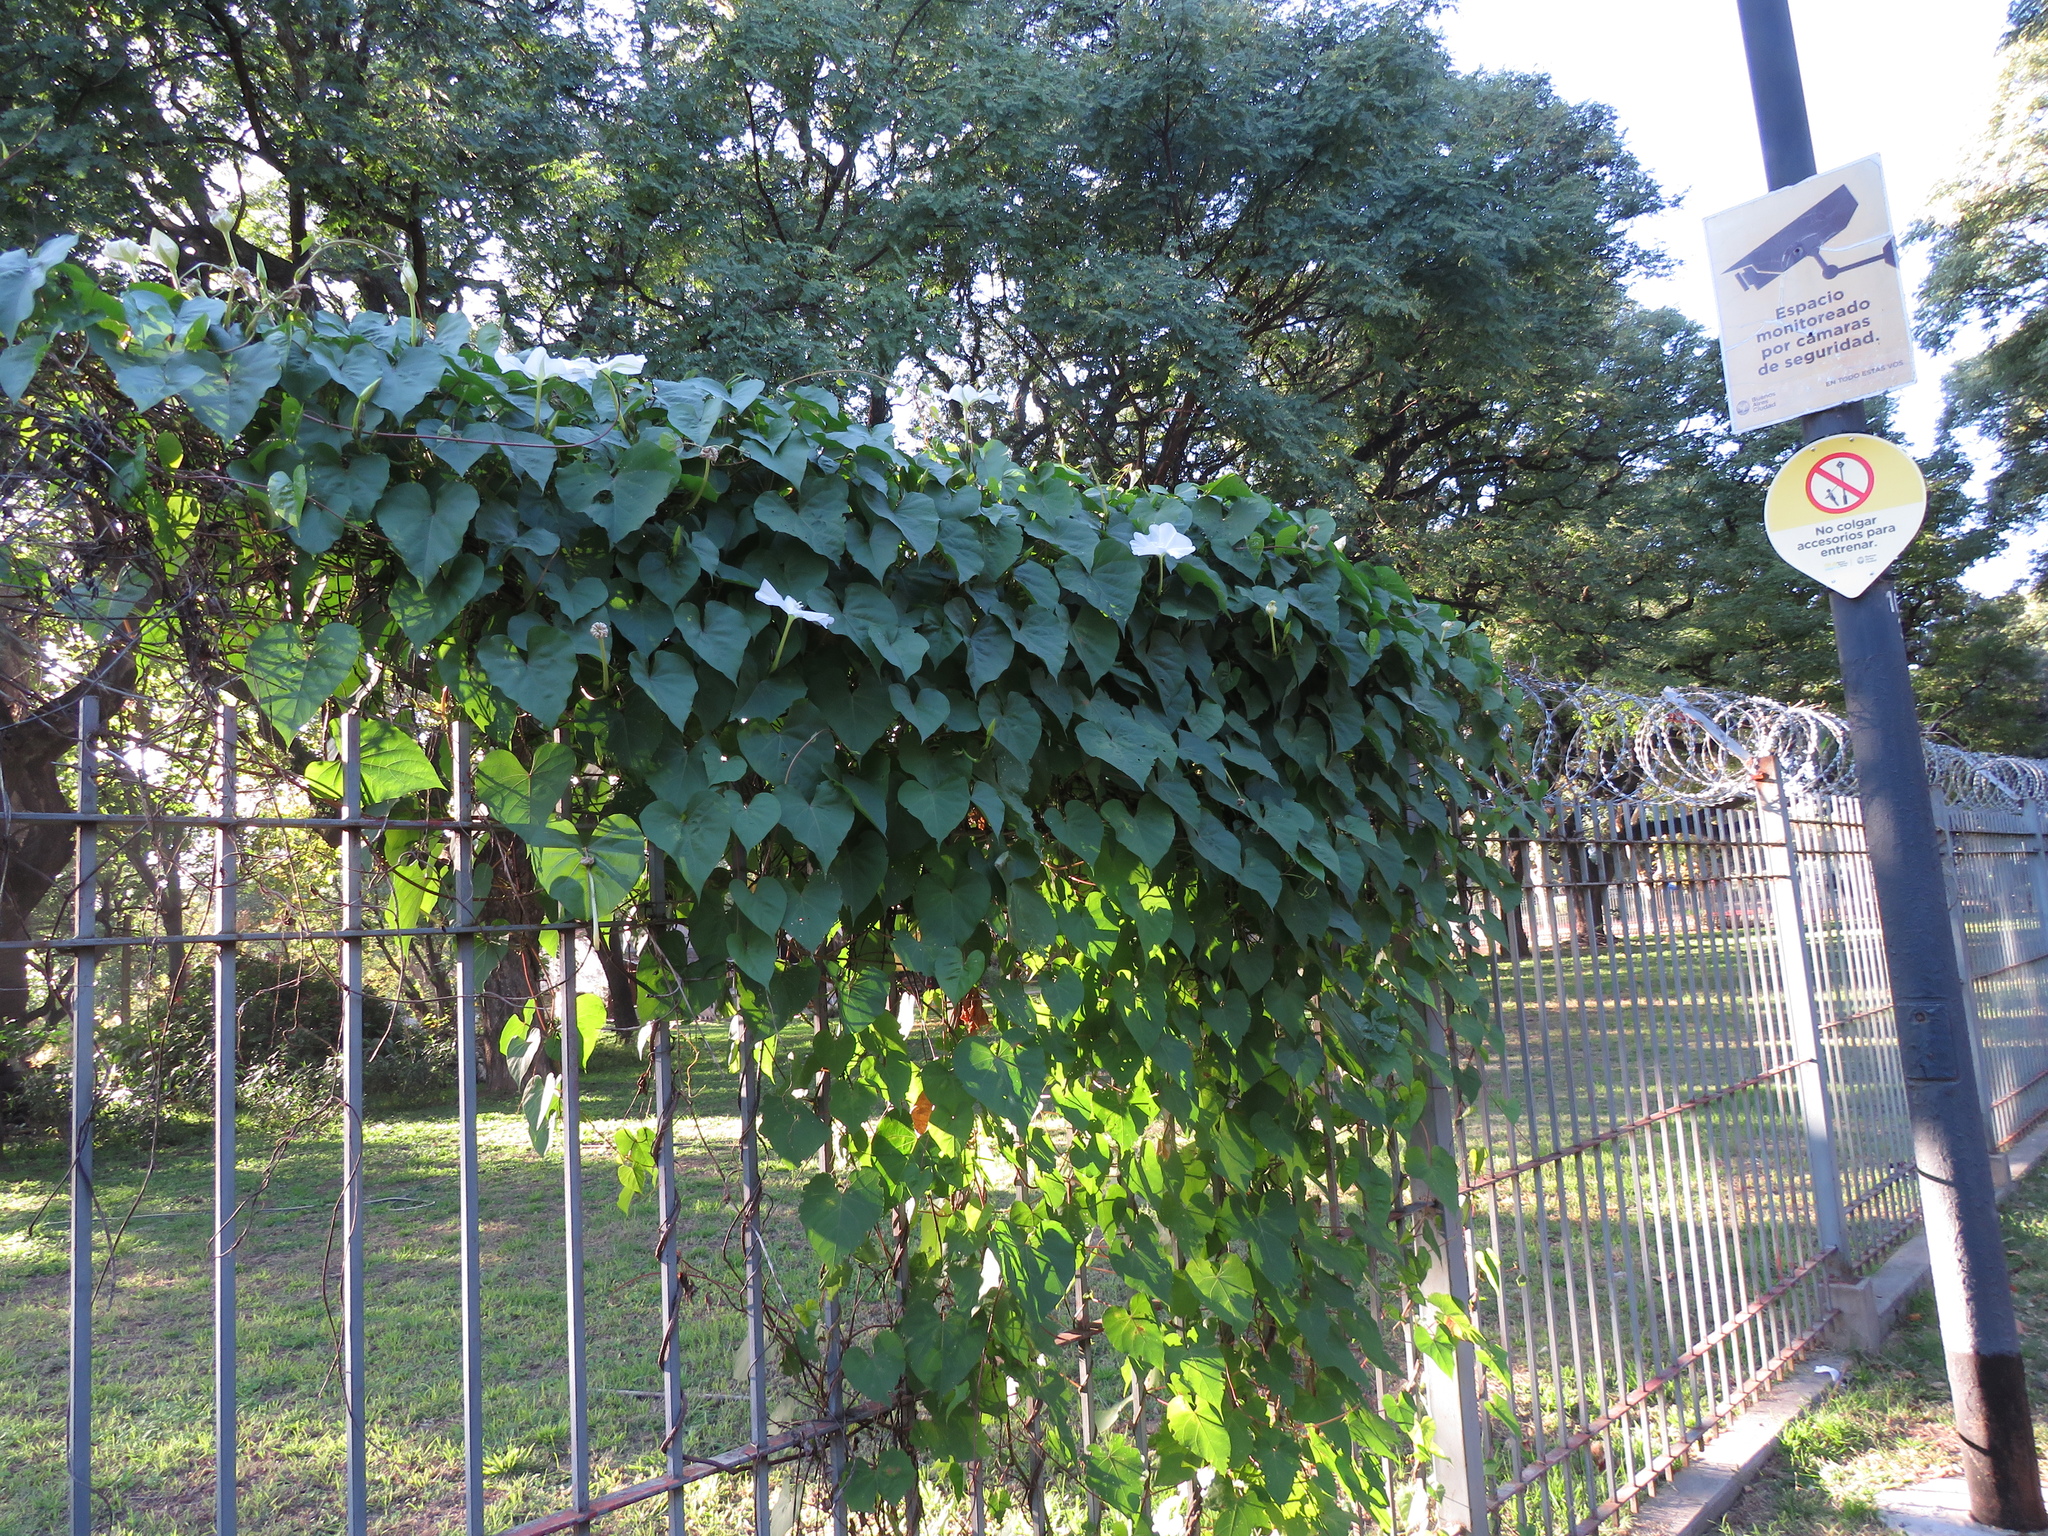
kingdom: Plantae
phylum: Tracheophyta
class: Magnoliopsida
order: Solanales
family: Convolvulaceae
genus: Ipomoea
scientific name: Ipomoea alba
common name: Moonflower
